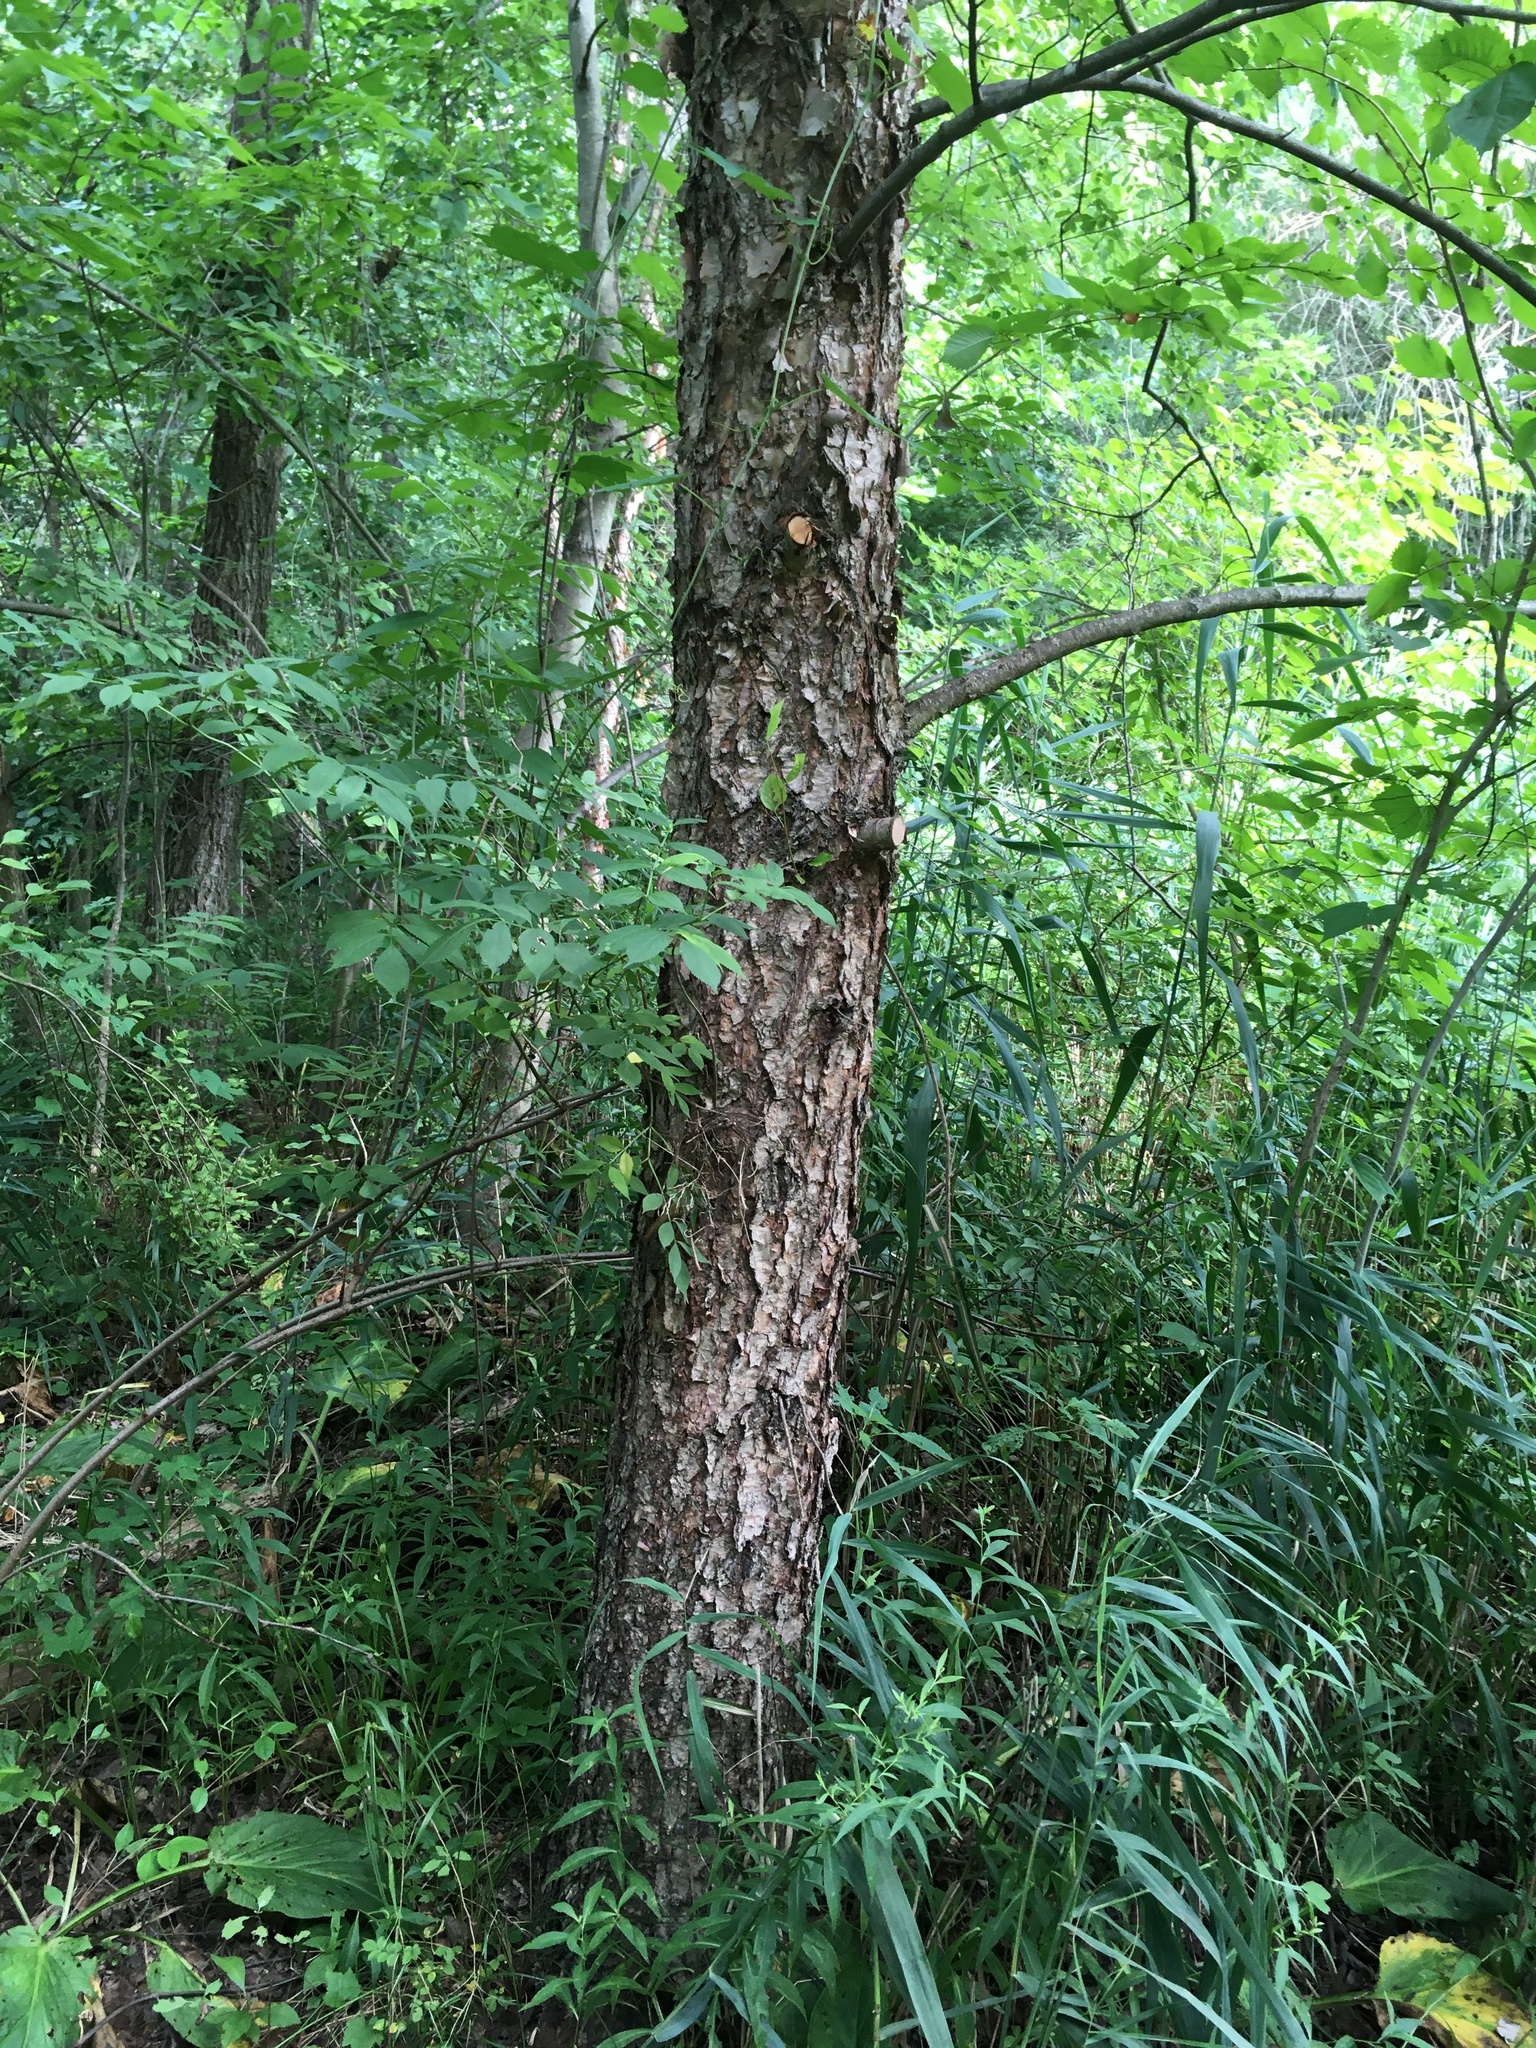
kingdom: Plantae
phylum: Tracheophyta
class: Magnoliopsida
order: Fagales
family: Betulaceae
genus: Betula
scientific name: Betula nigra
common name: Black birch
